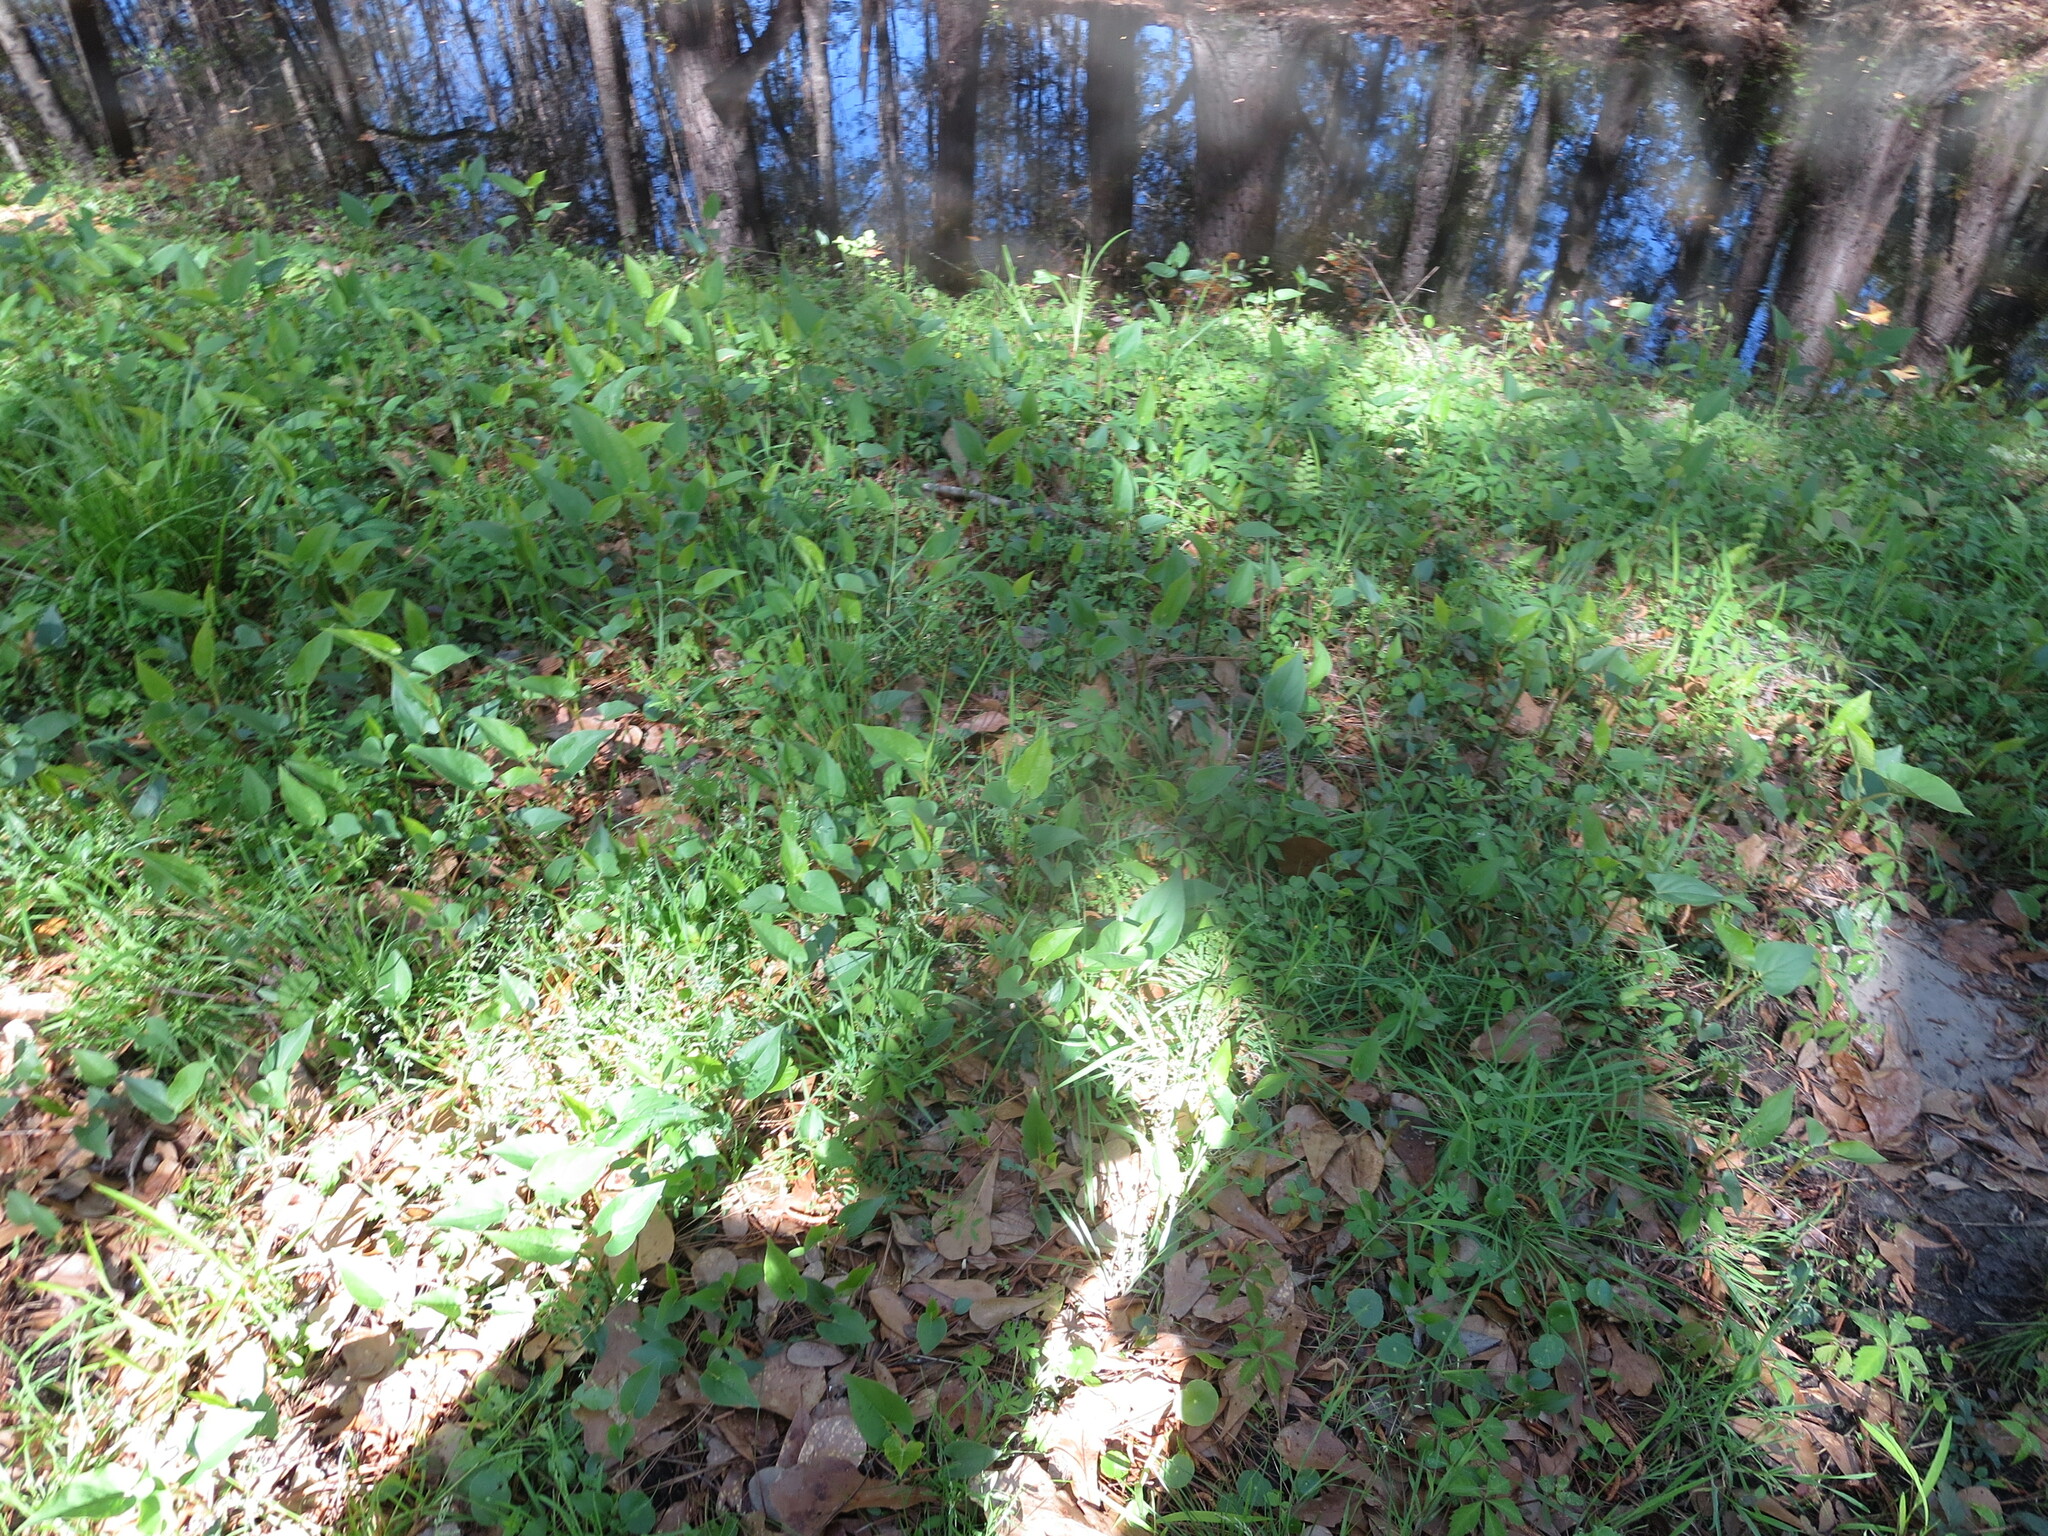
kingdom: Plantae
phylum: Tracheophyta
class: Magnoliopsida
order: Piperales
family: Saururaceae
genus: Saururus
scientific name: Saururus cernuus
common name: Lizard's-tail
